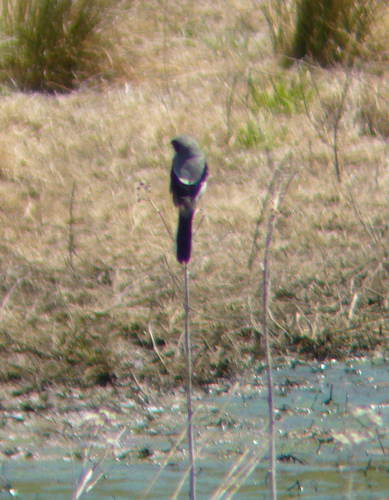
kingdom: Animalia
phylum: Chordata
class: Aves
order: Passeriformes
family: Laniidae
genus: Lanius
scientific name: Lanius ludovicianus
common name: Loggerhead shrike
